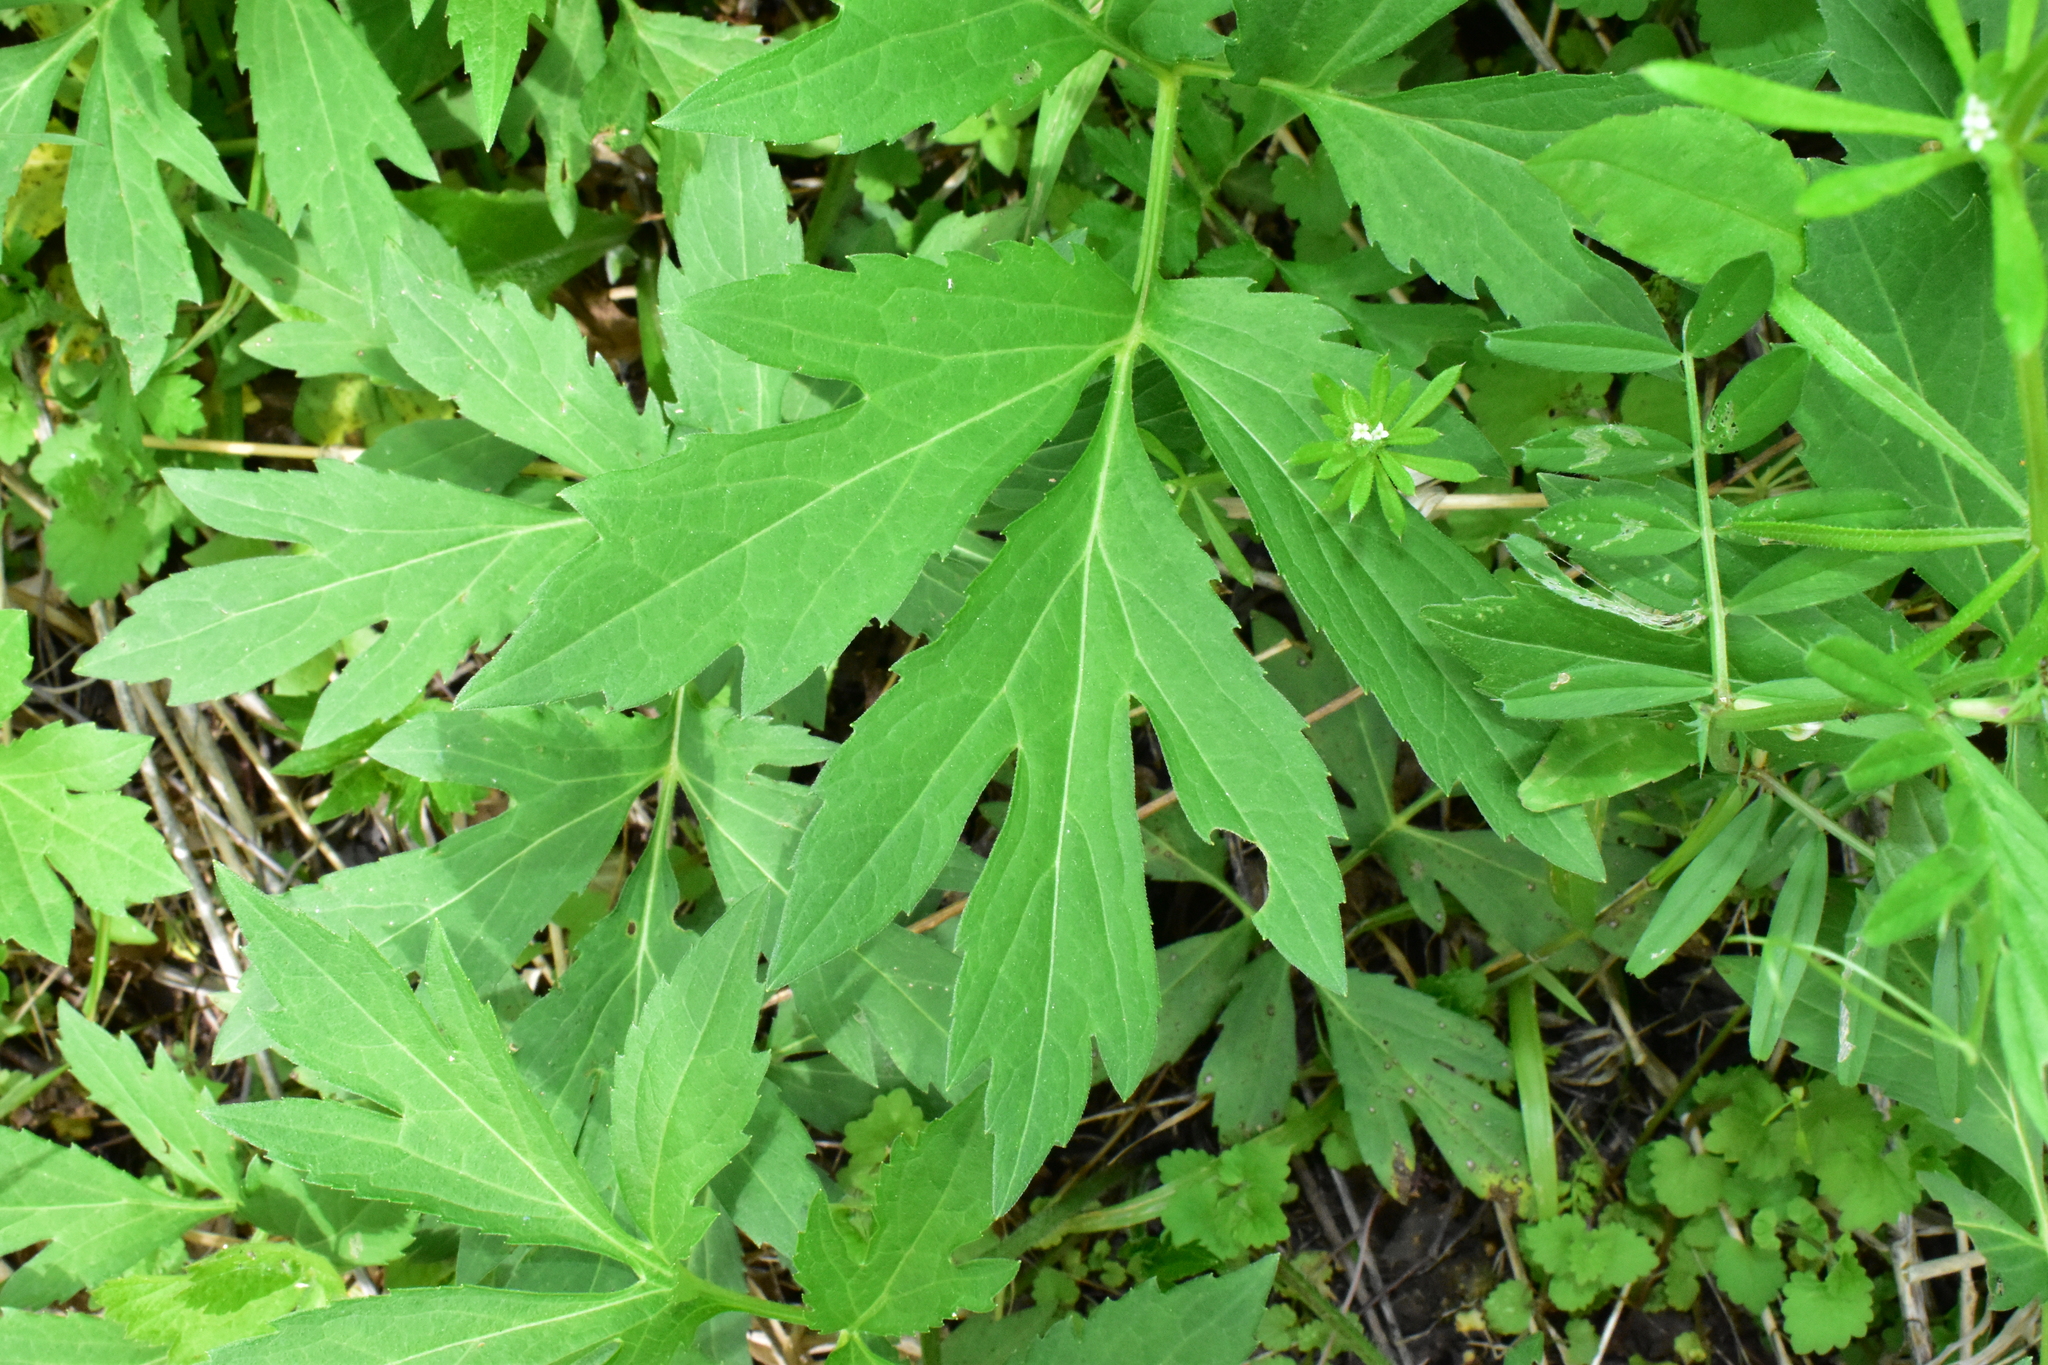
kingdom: Plantae
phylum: Tracheophyta
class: Magnoliopsida
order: Asterales
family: Asteraceae
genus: Rudbeckia
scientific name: Rudbeckia laciniata
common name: Coneflower
